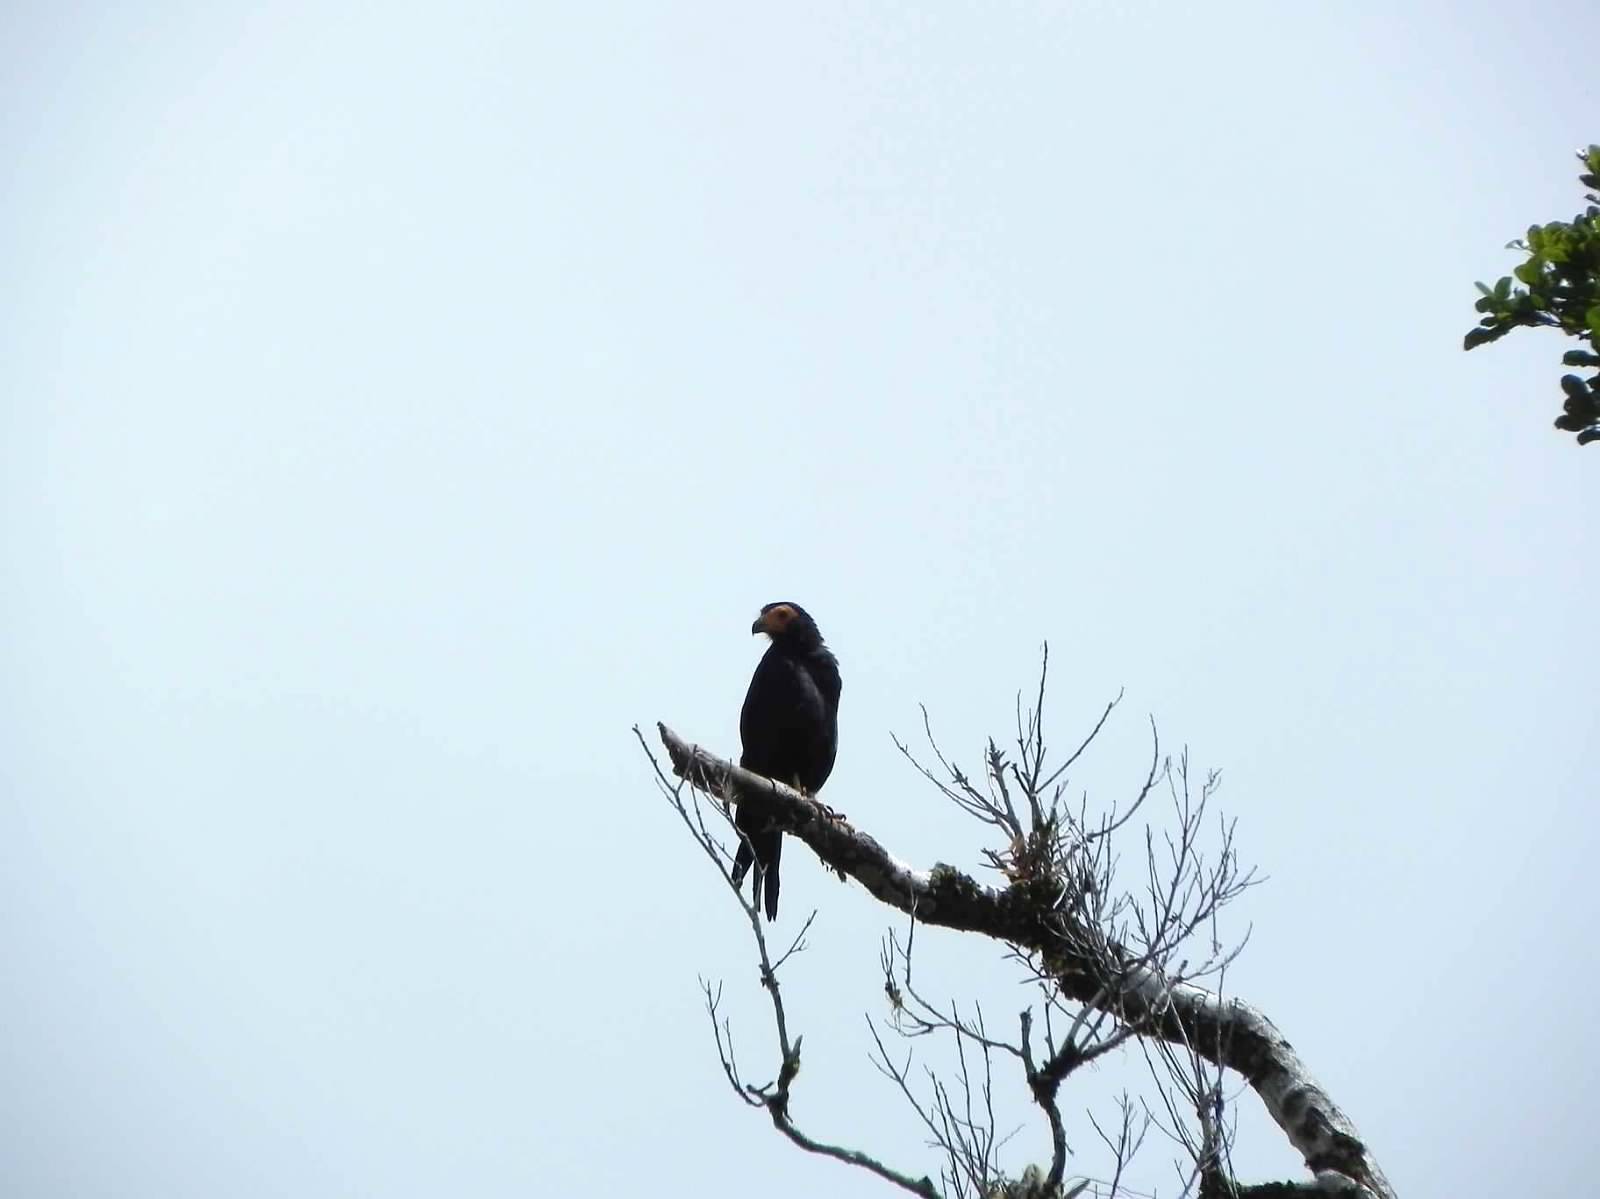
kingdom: Animalia
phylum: Chordata
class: Aves
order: Falconiformes
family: Falconidae
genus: Daptrius
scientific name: Daptrius ater
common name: Black caracara
